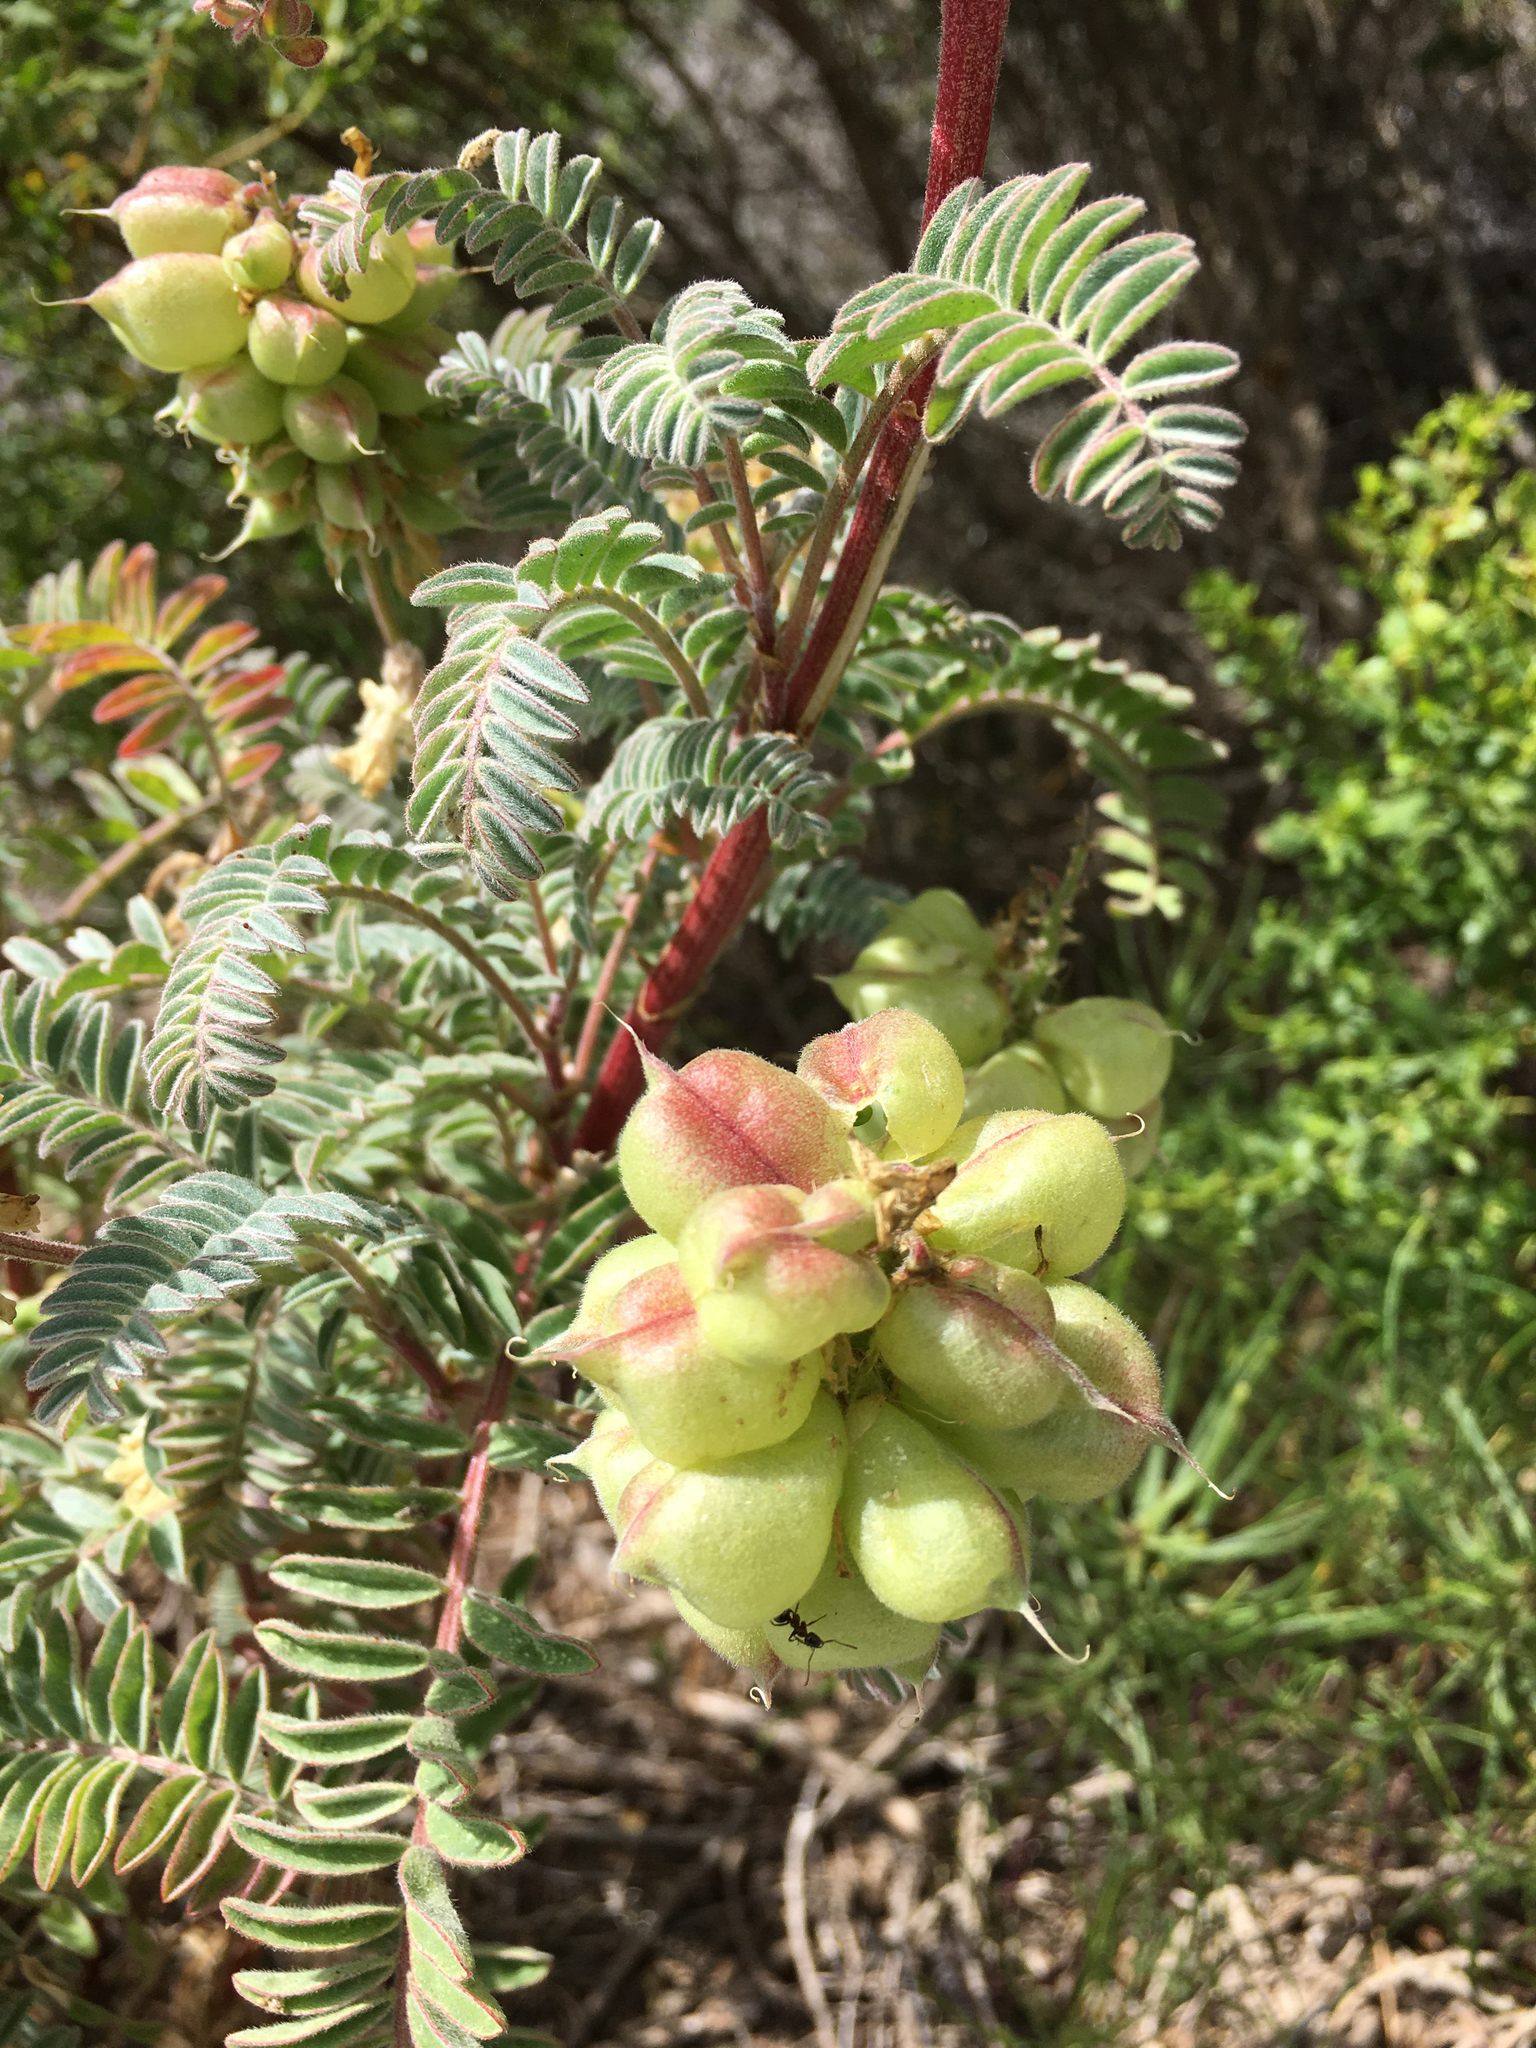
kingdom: Plantae
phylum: Tracheophyta
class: Magnoliopsida
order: Fabales
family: Fabaceae
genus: Astragalus
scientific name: Astragalus nuttallii
